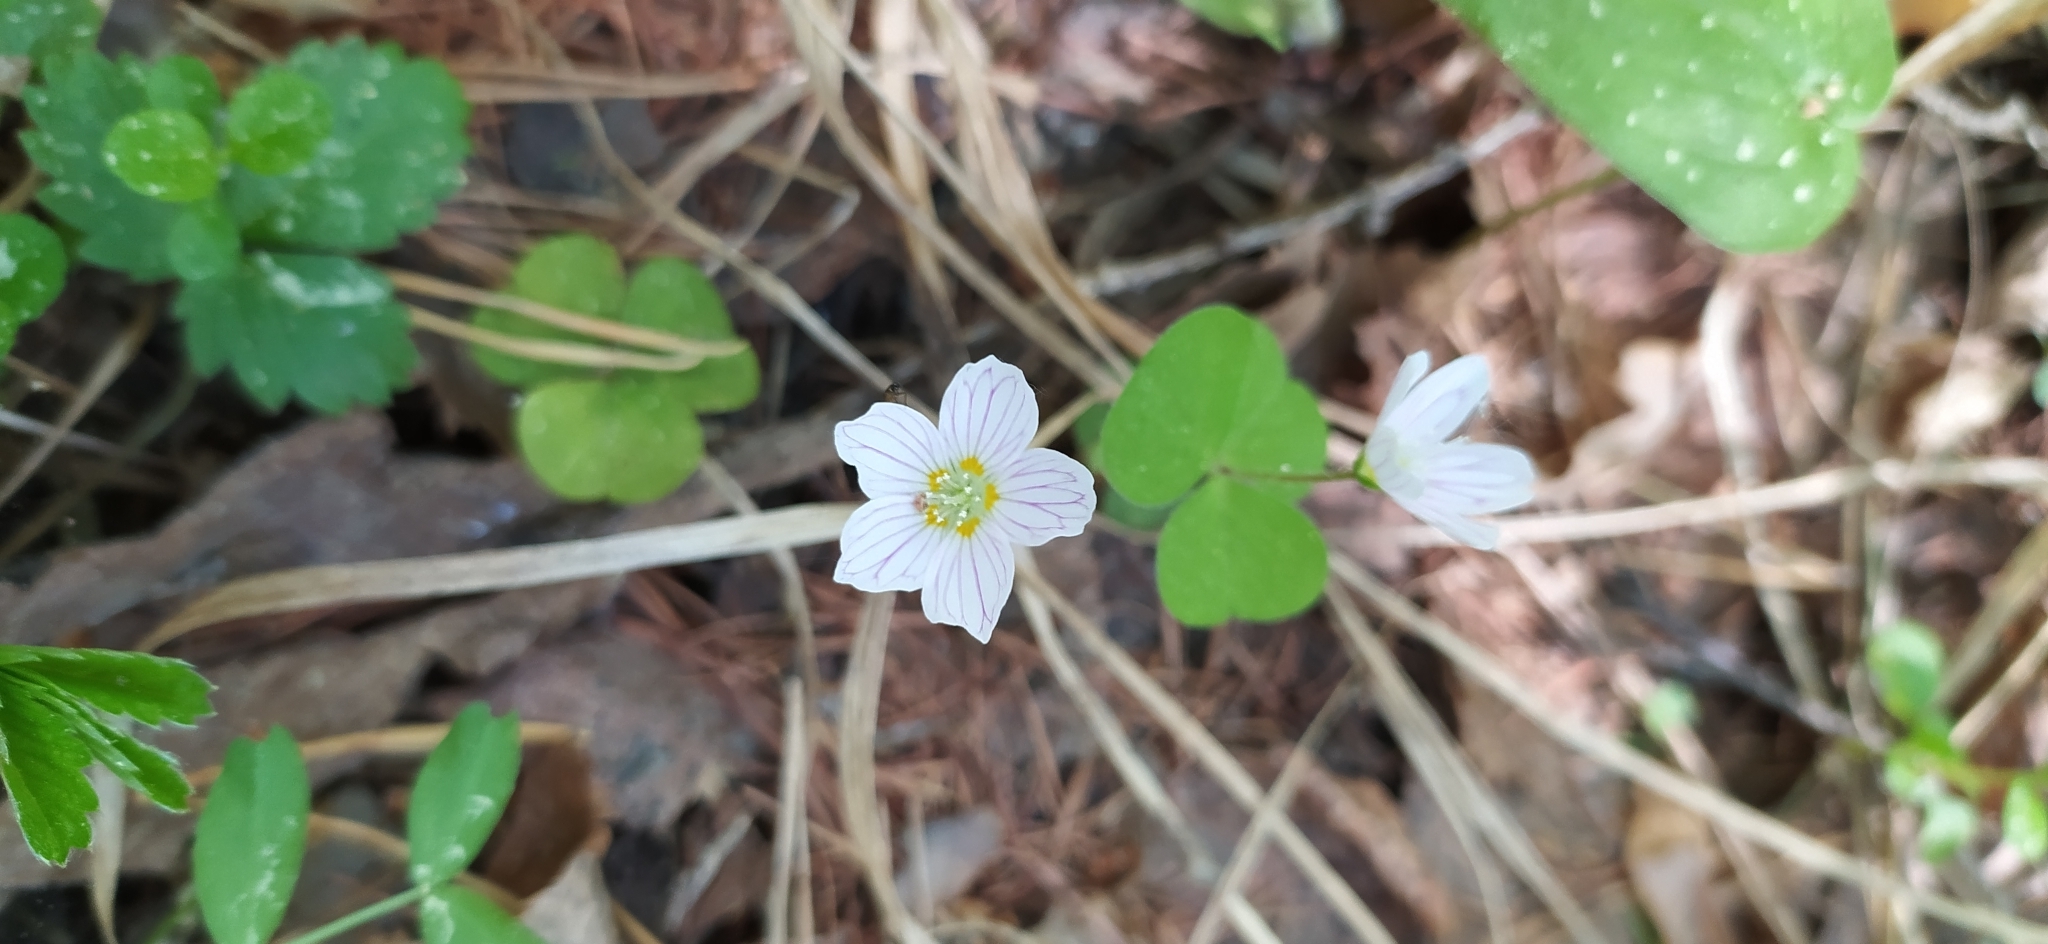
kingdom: Plantae
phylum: Tracheophyta
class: Magnoliopsida
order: Oxalidales
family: Oxalidaceae
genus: Oxalis
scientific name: Oxalis acetosella
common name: Wood-sorrel
